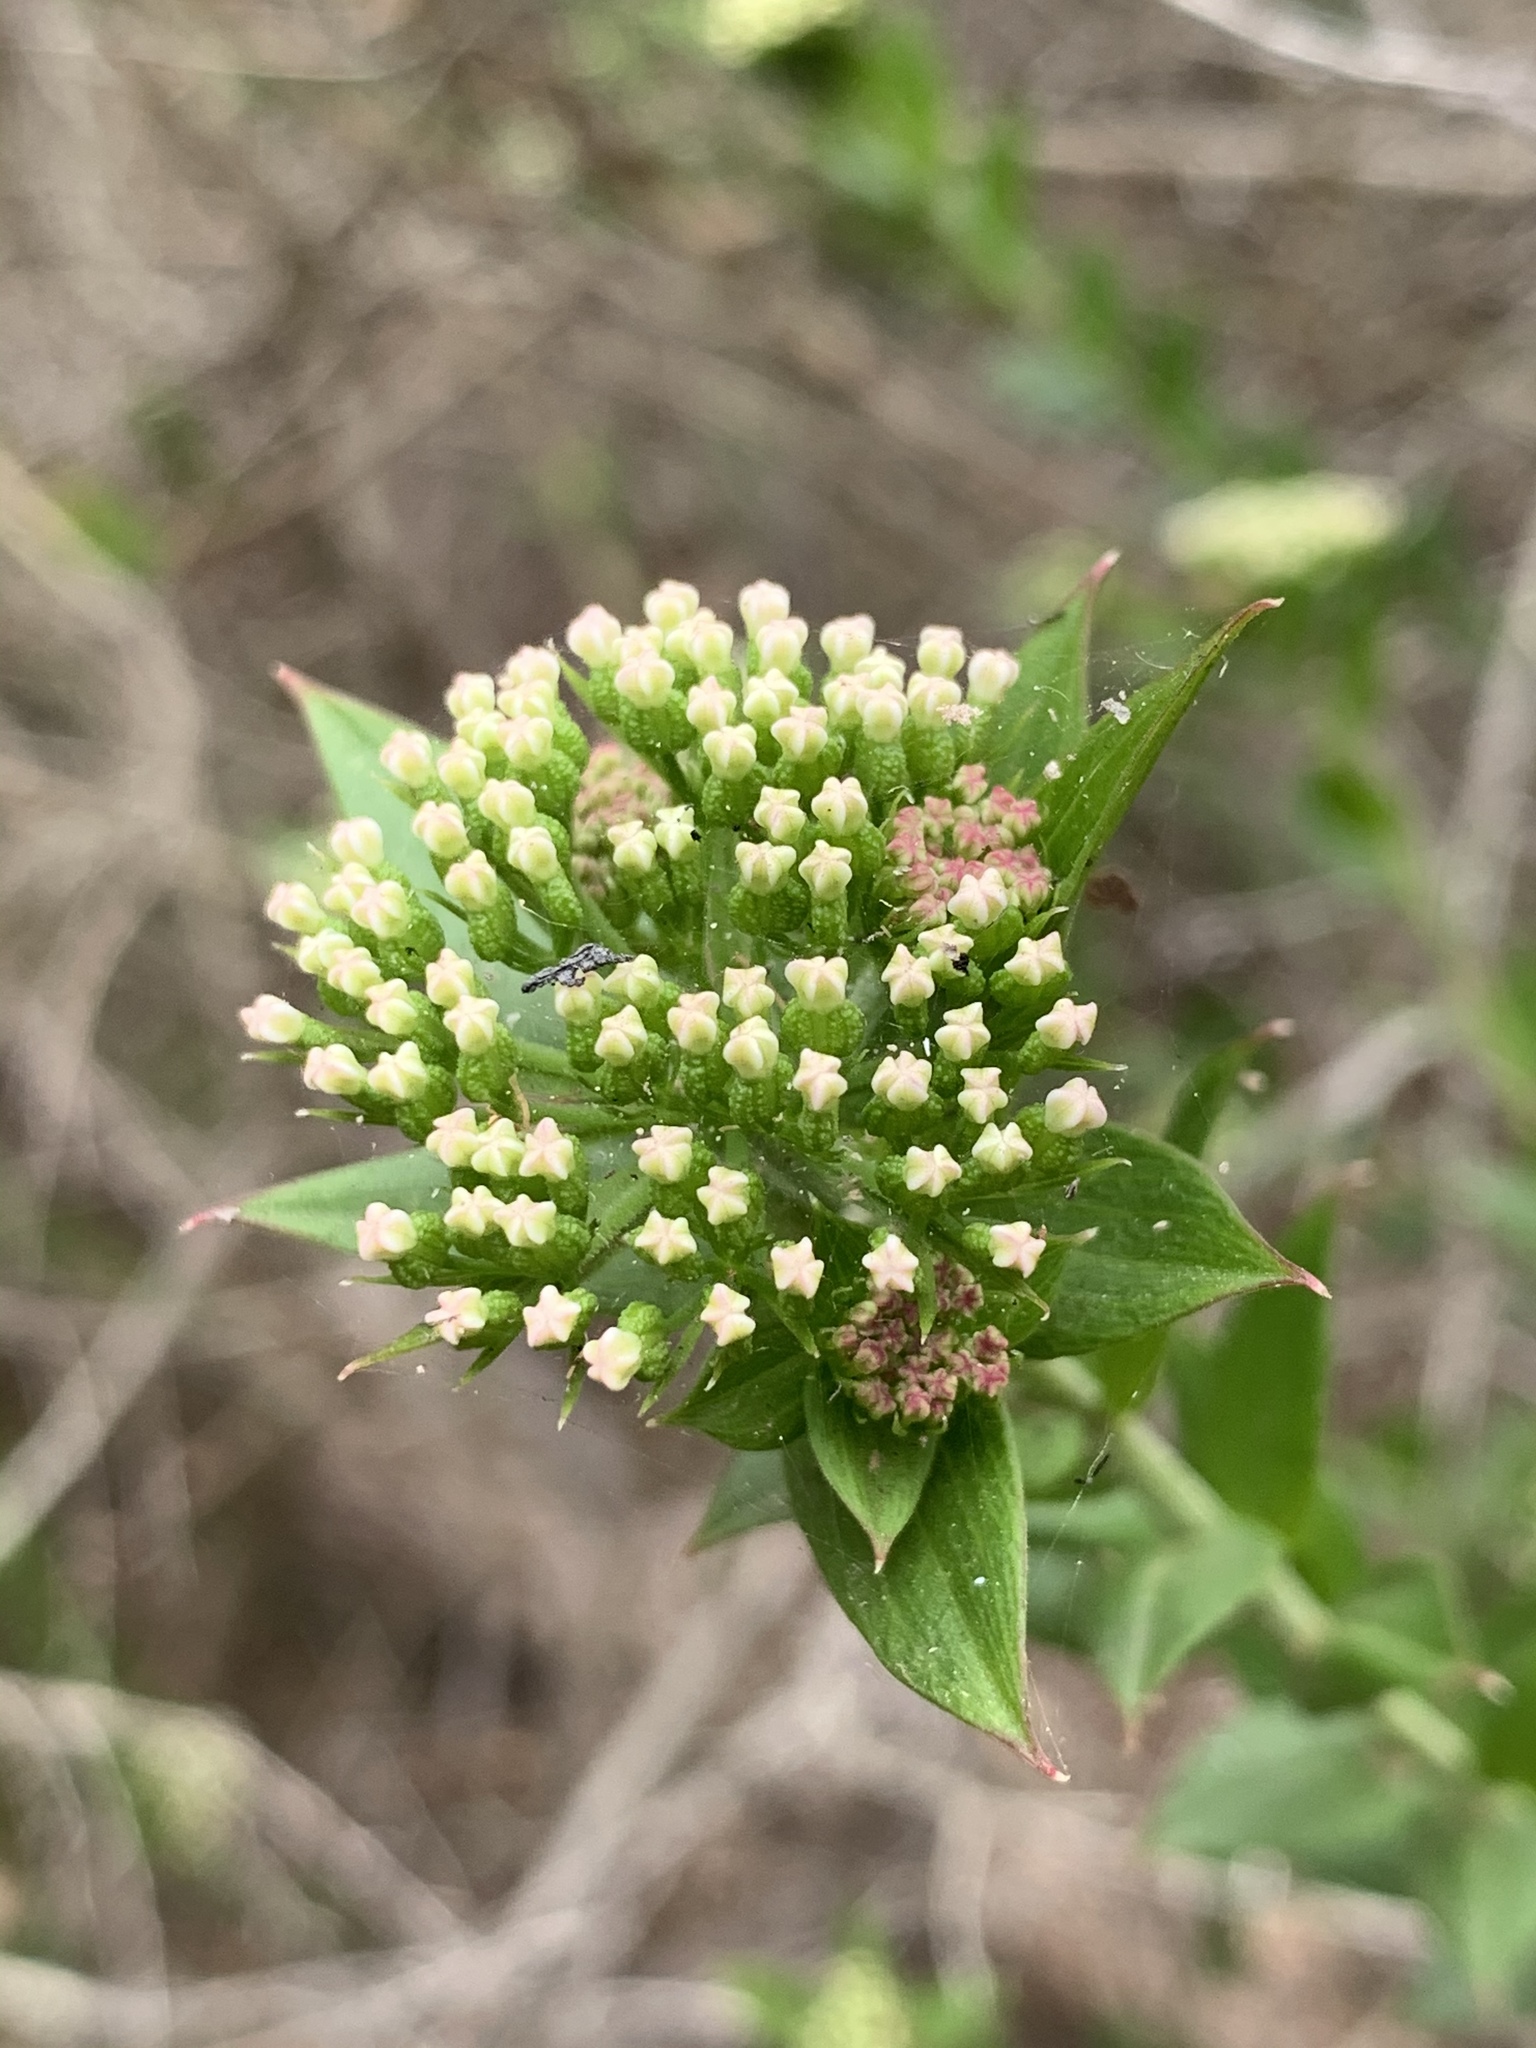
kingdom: Plantae
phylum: Tracheophyta
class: Magnoliopsida
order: Apiales
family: Apiaceae
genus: Platysace
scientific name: Platysace lanceolata
